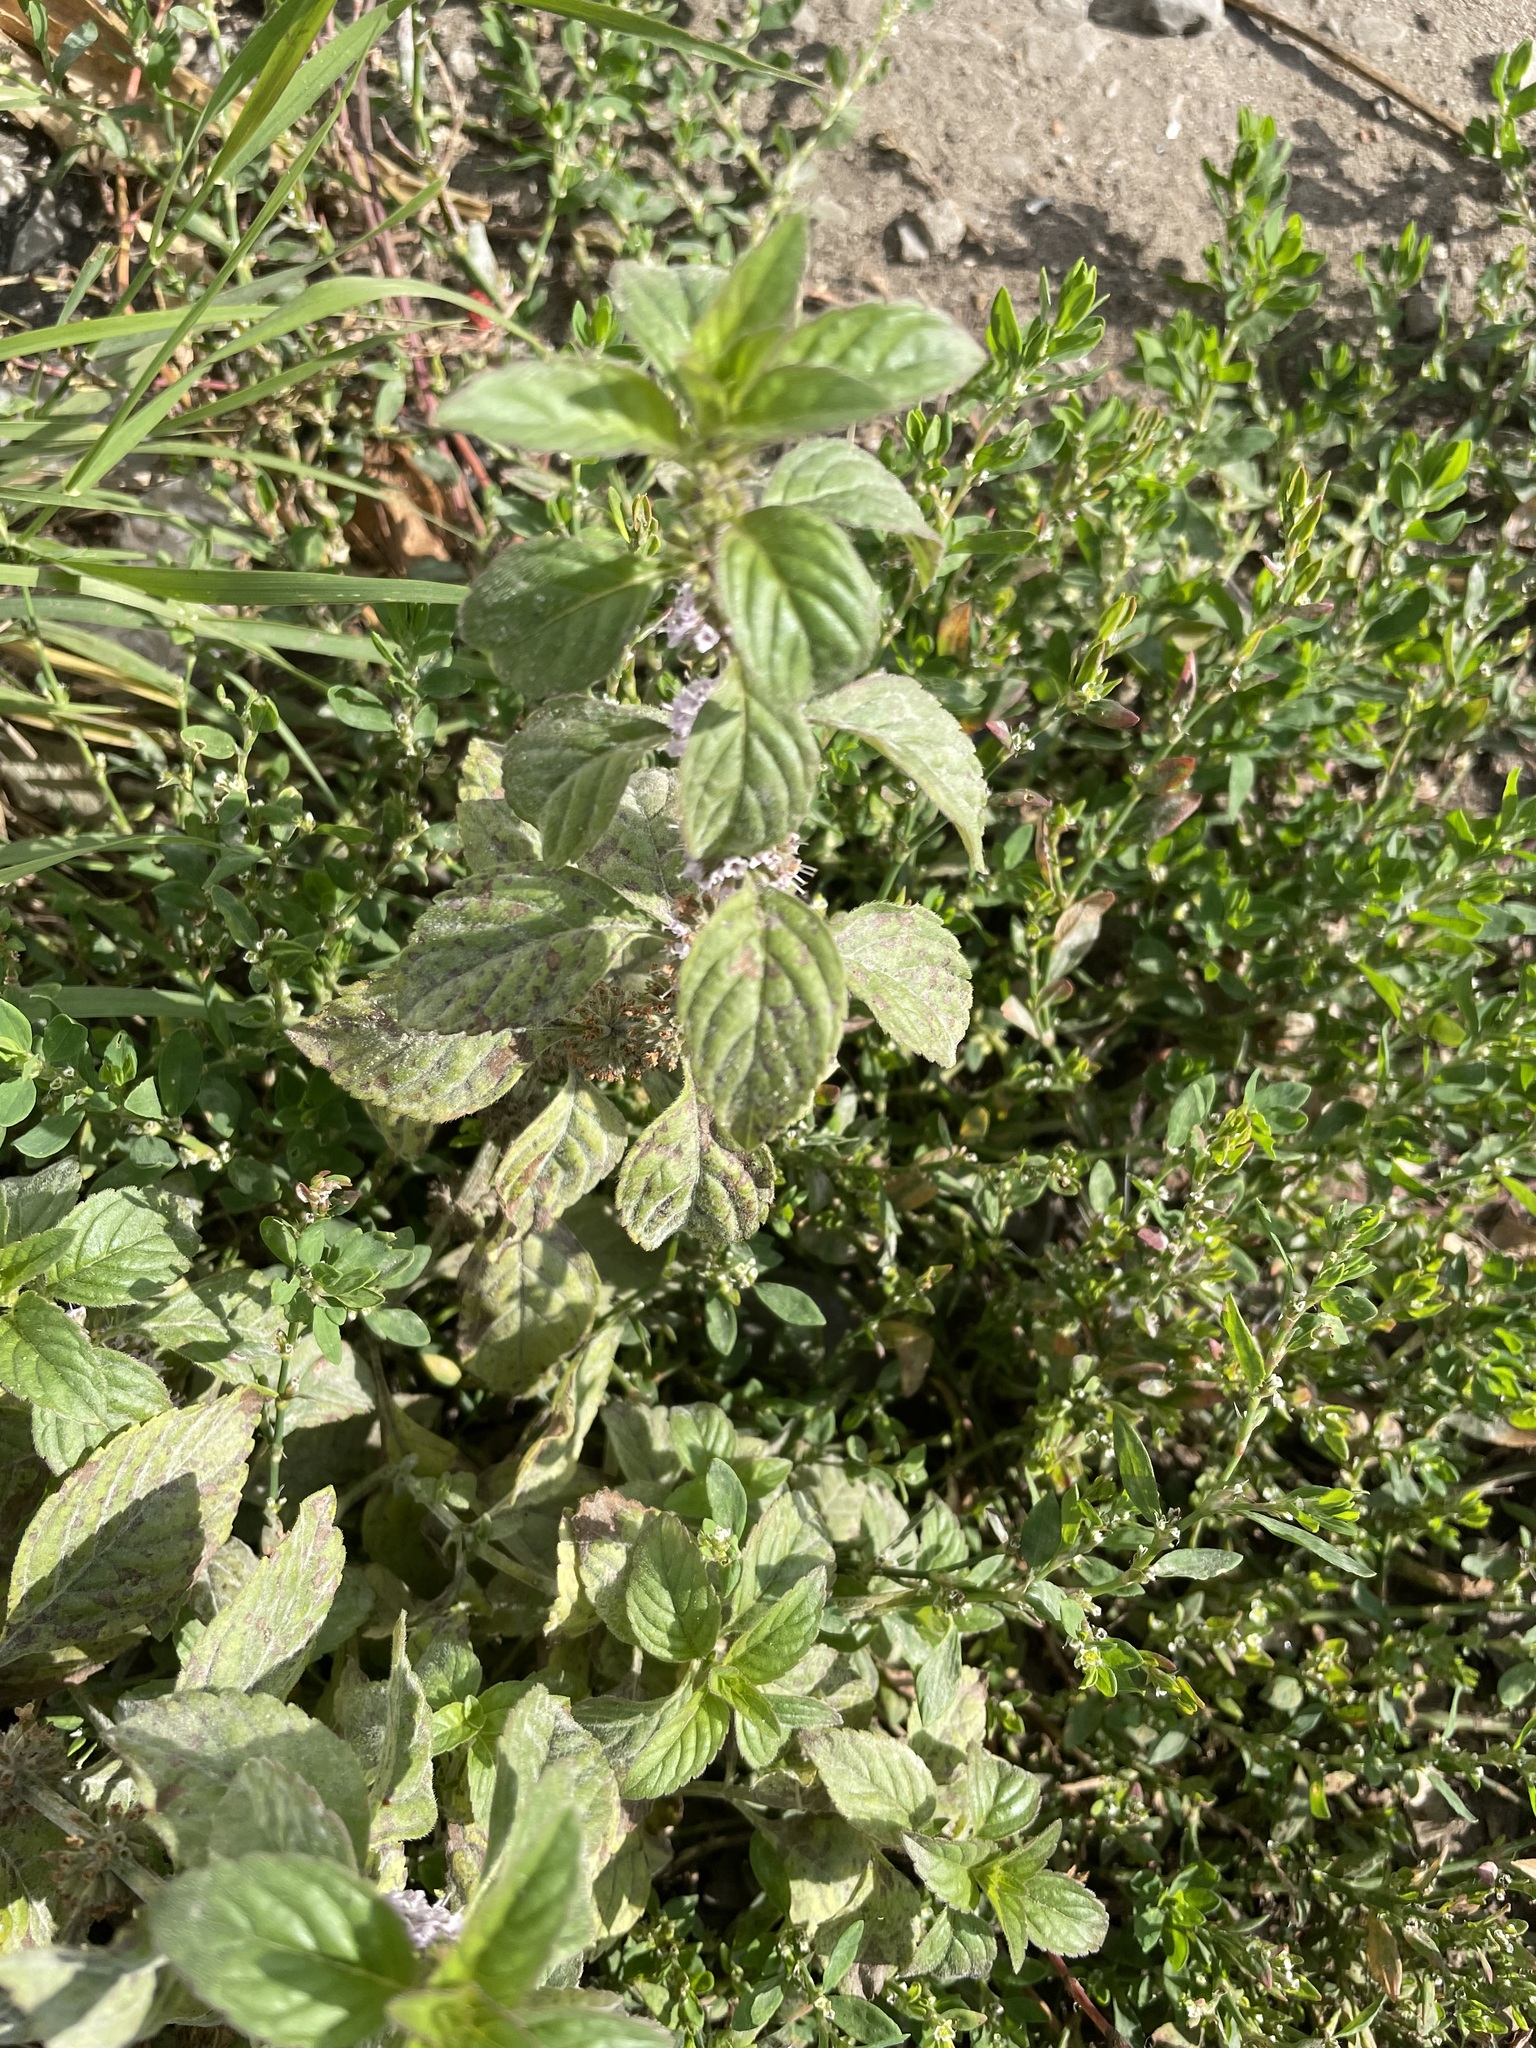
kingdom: Plantae
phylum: Tracheophyta
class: Magnoliopsida
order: Lamiales
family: Lamiaceae
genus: Mentha
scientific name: Mentha arvensis
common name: Corn mint
